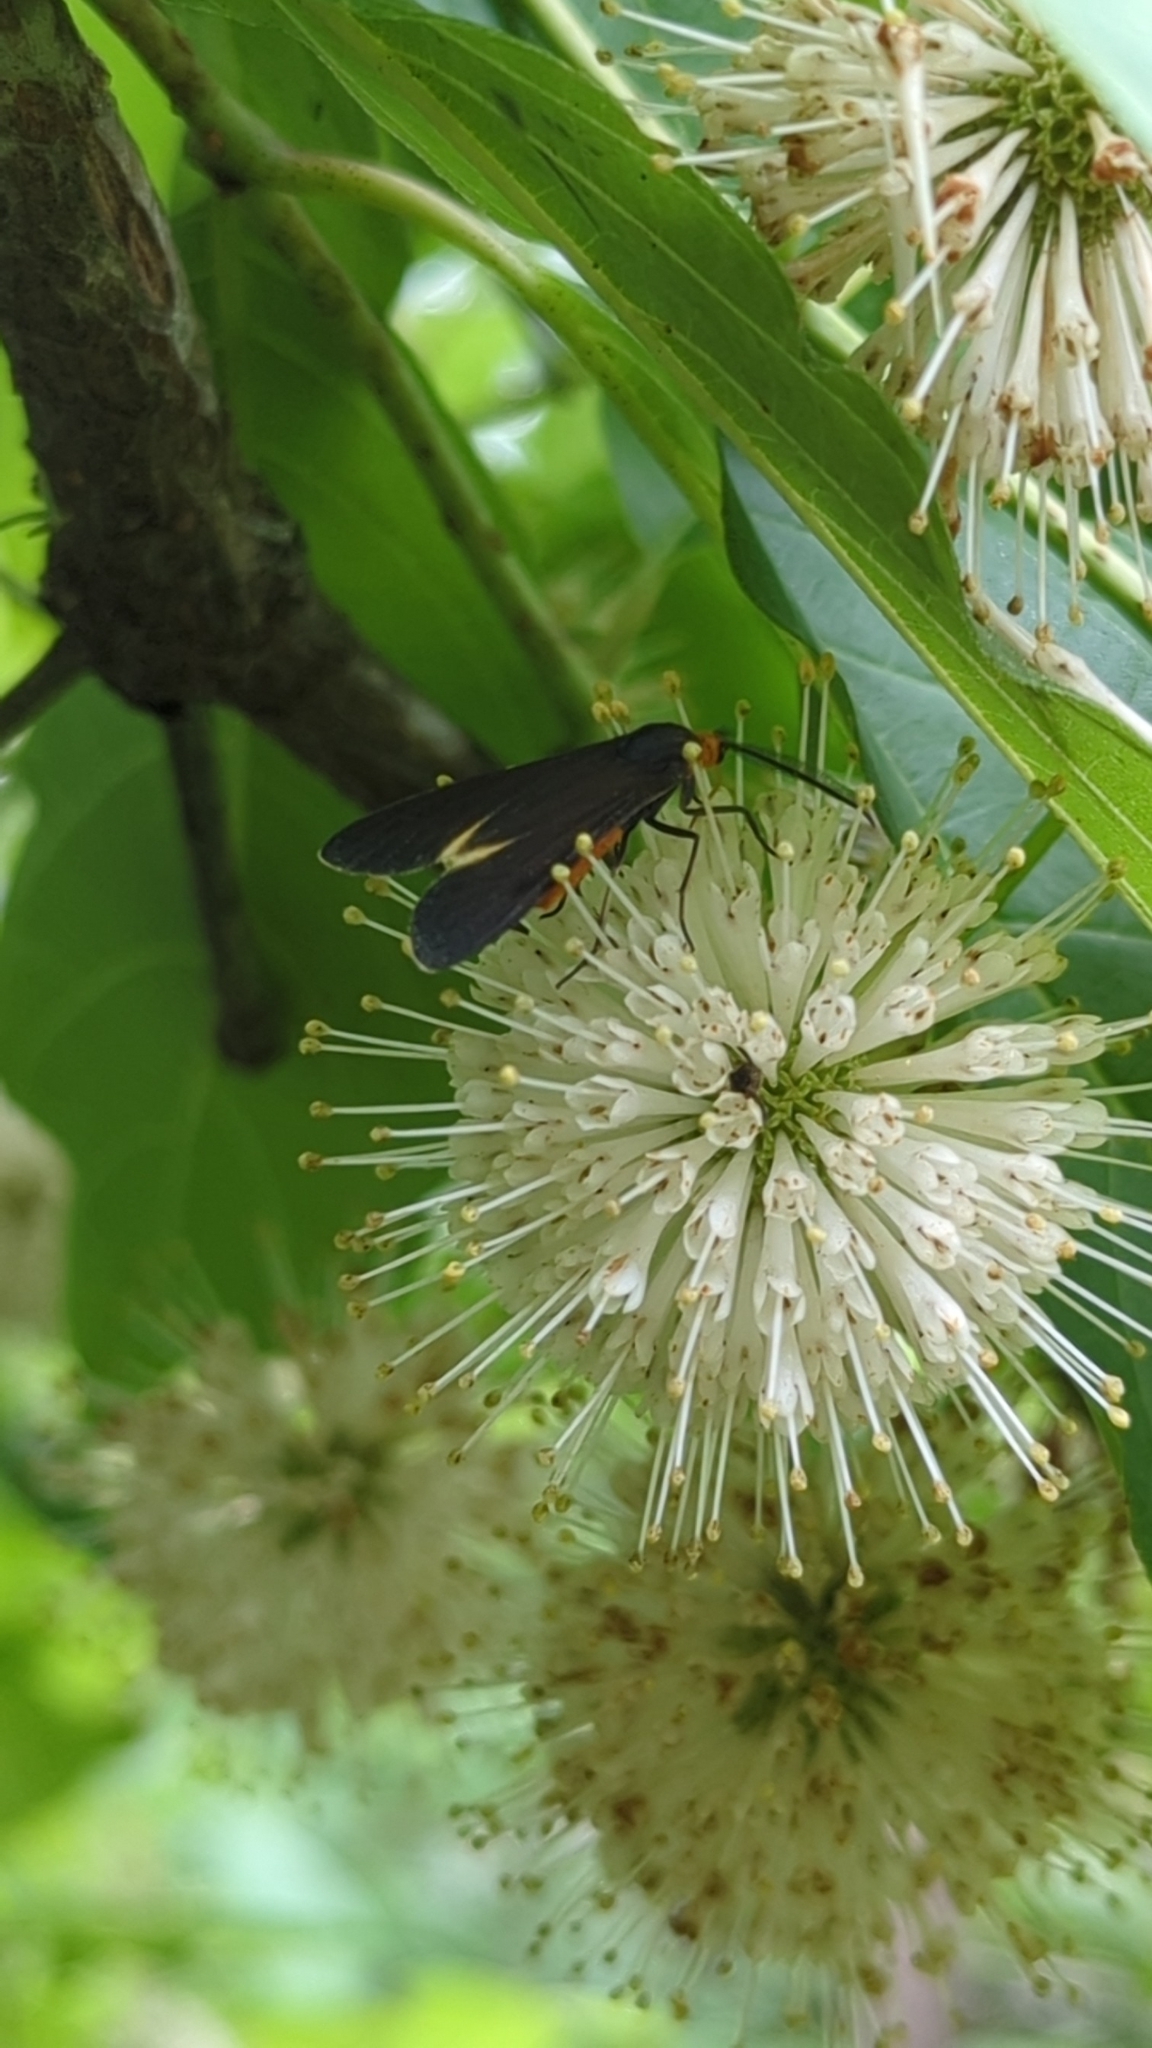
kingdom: Animalia
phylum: Arthropoda
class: Insecta
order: Lepidoptera
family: Erebidae
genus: Dahana
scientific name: Dahana atripennis
